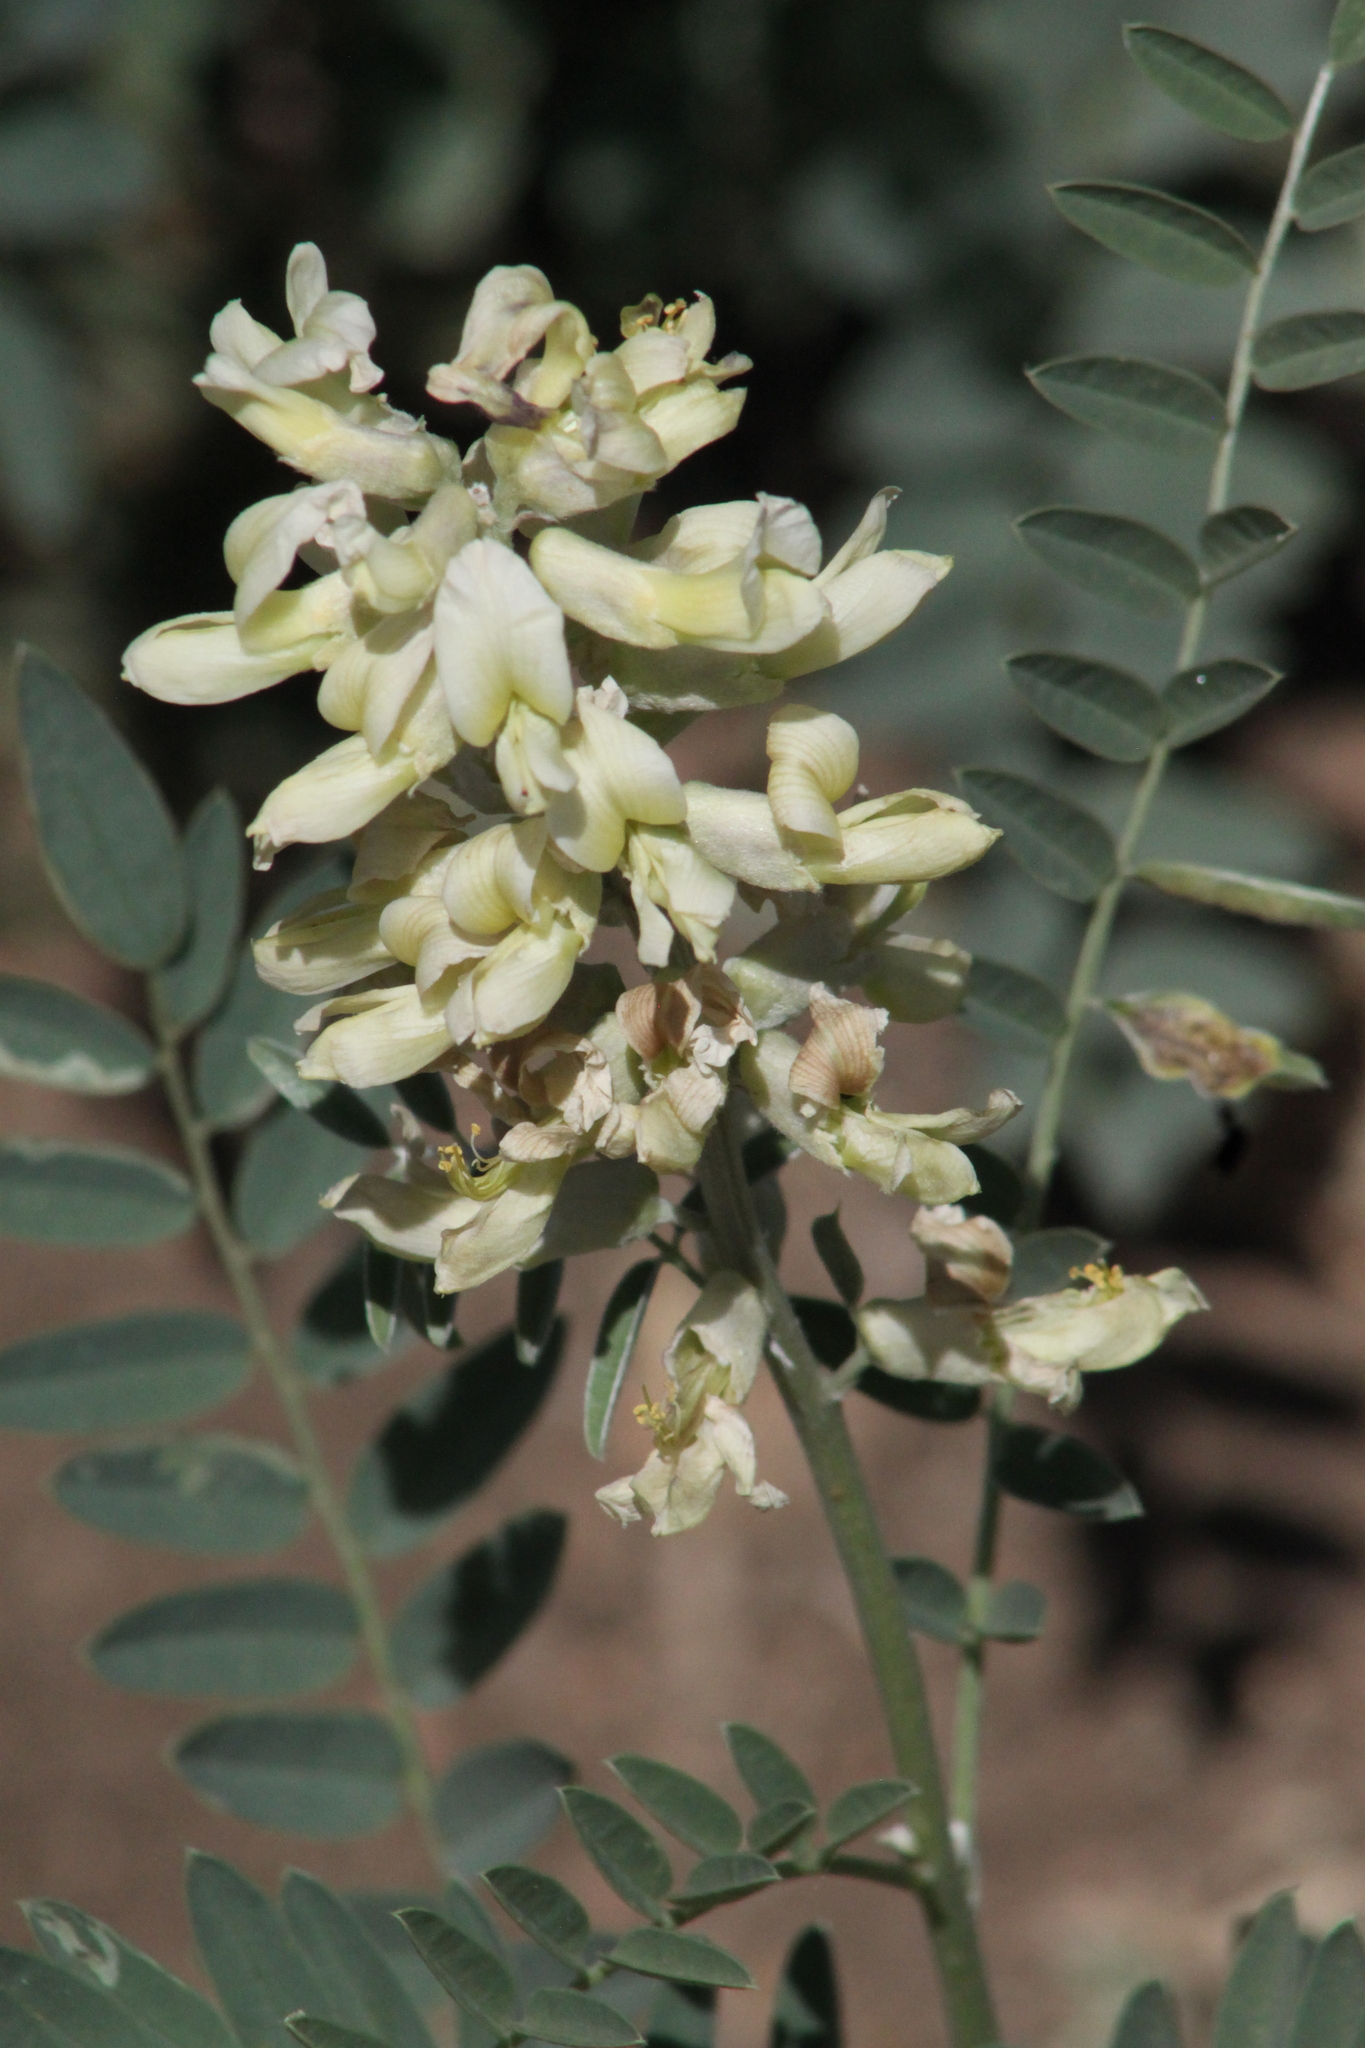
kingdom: Plantae
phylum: Tracheophyta
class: Magnoliopsida
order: Fabales
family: Fabaceae
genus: Sophora
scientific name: Sophora alopecuroides
